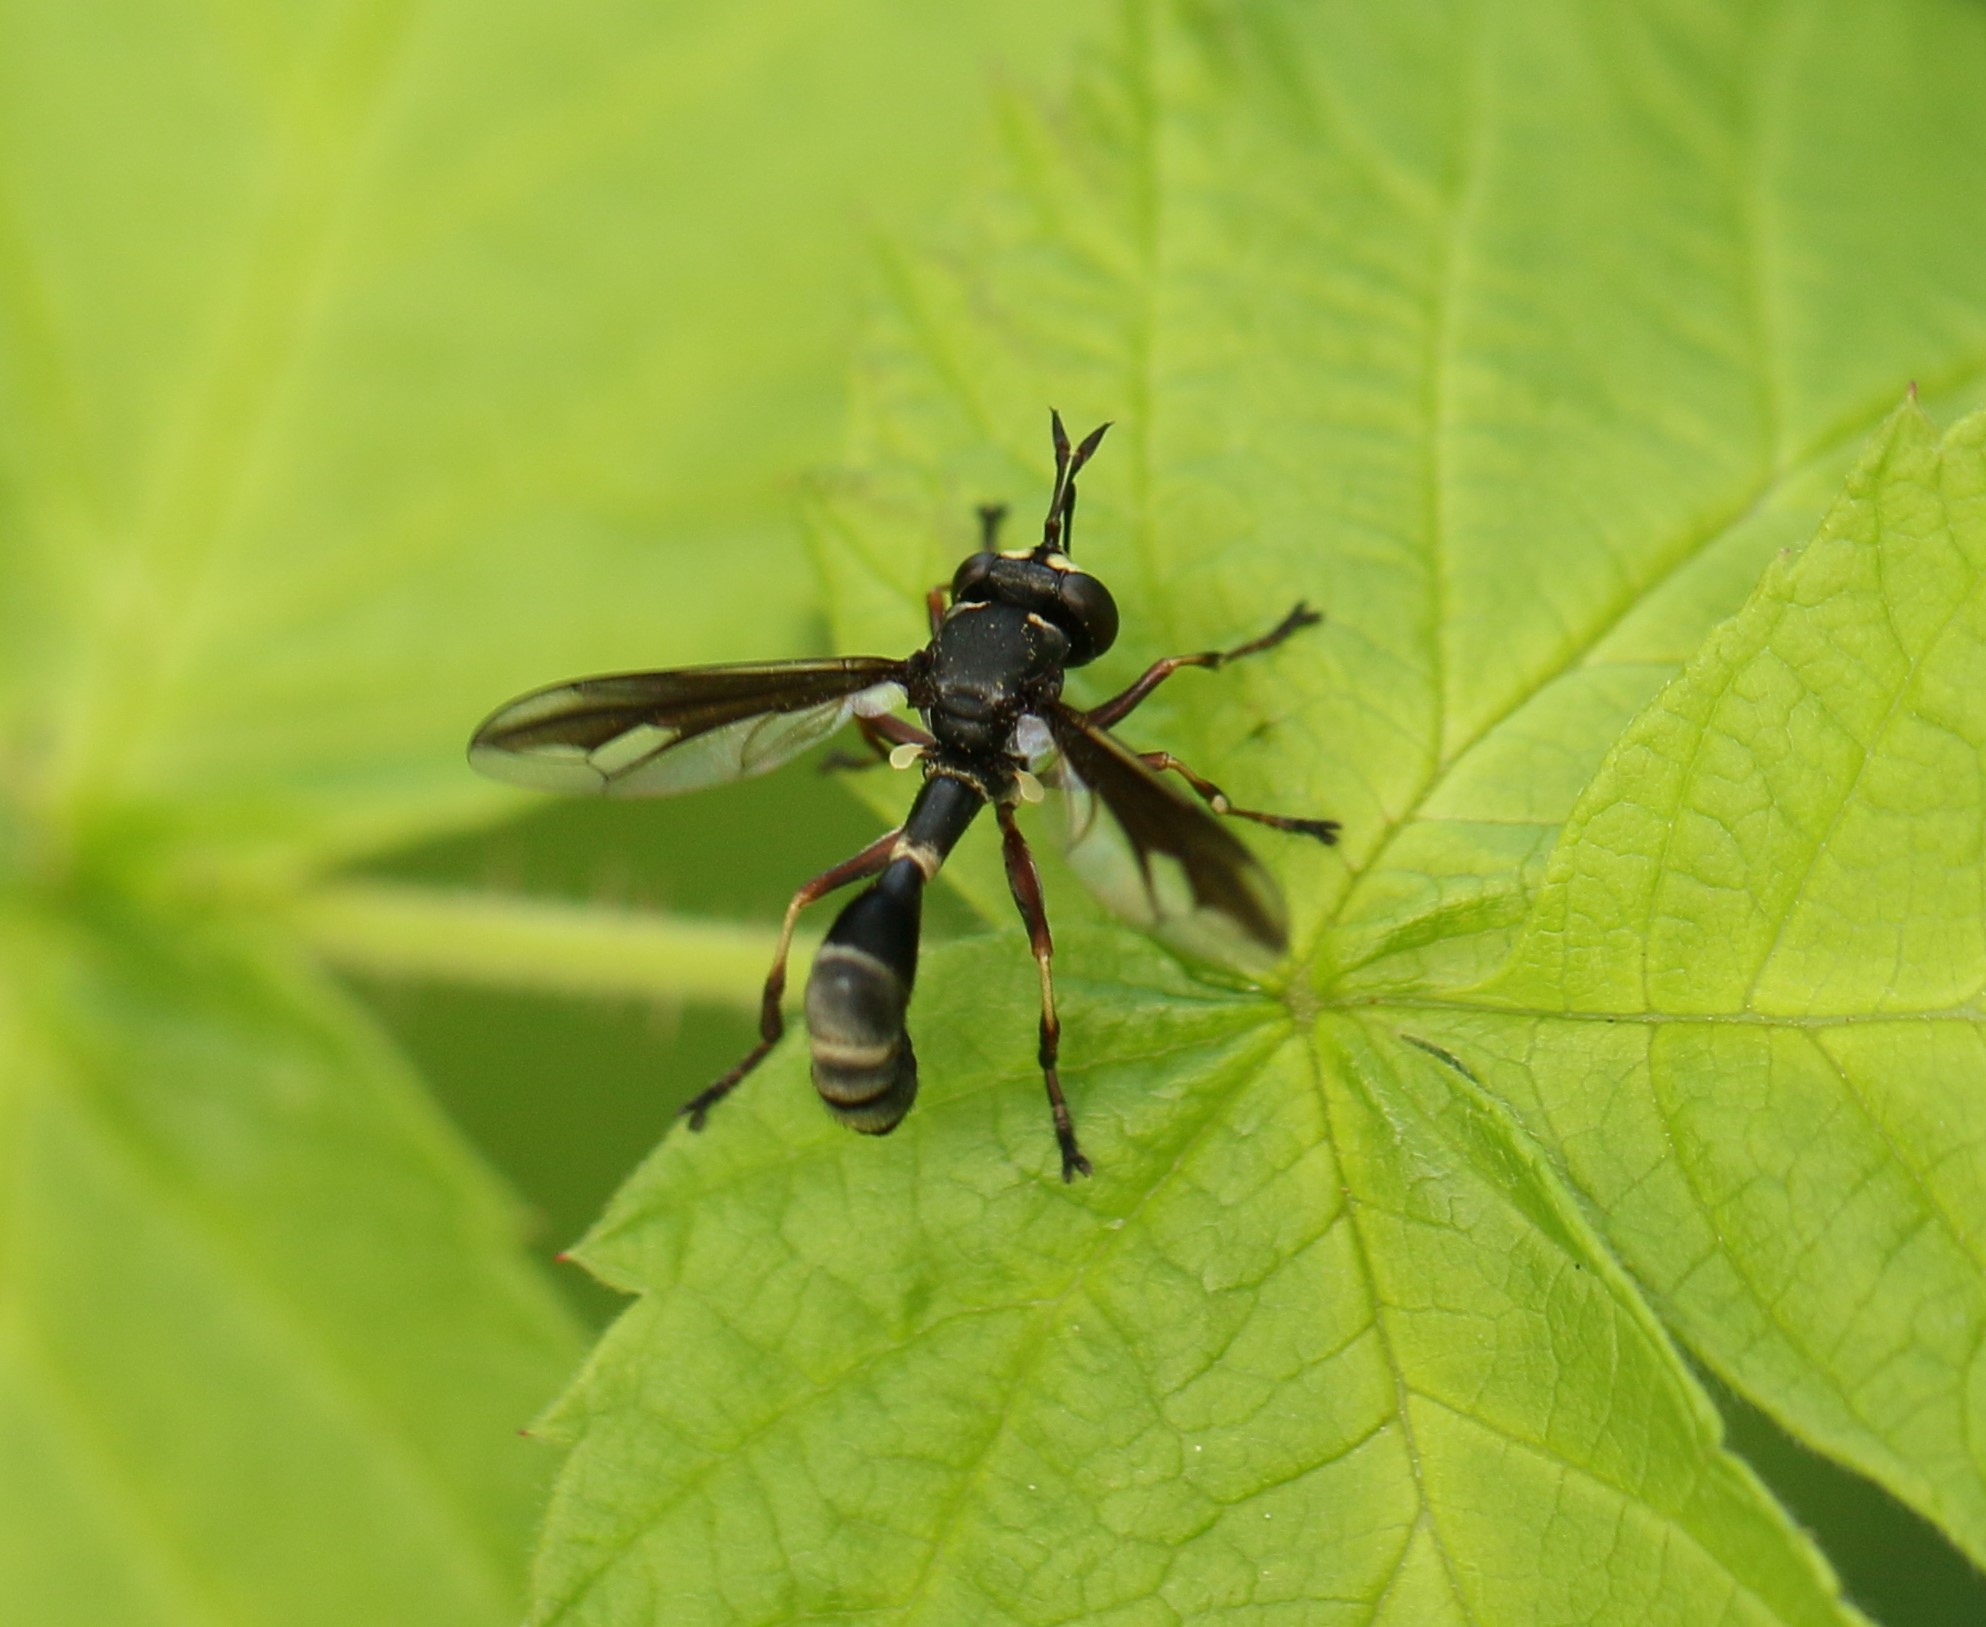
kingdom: Animalia
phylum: Arthropoda
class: Insecta
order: Diptera
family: Conopidae
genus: Physocephala
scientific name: Physocephala furcillata
